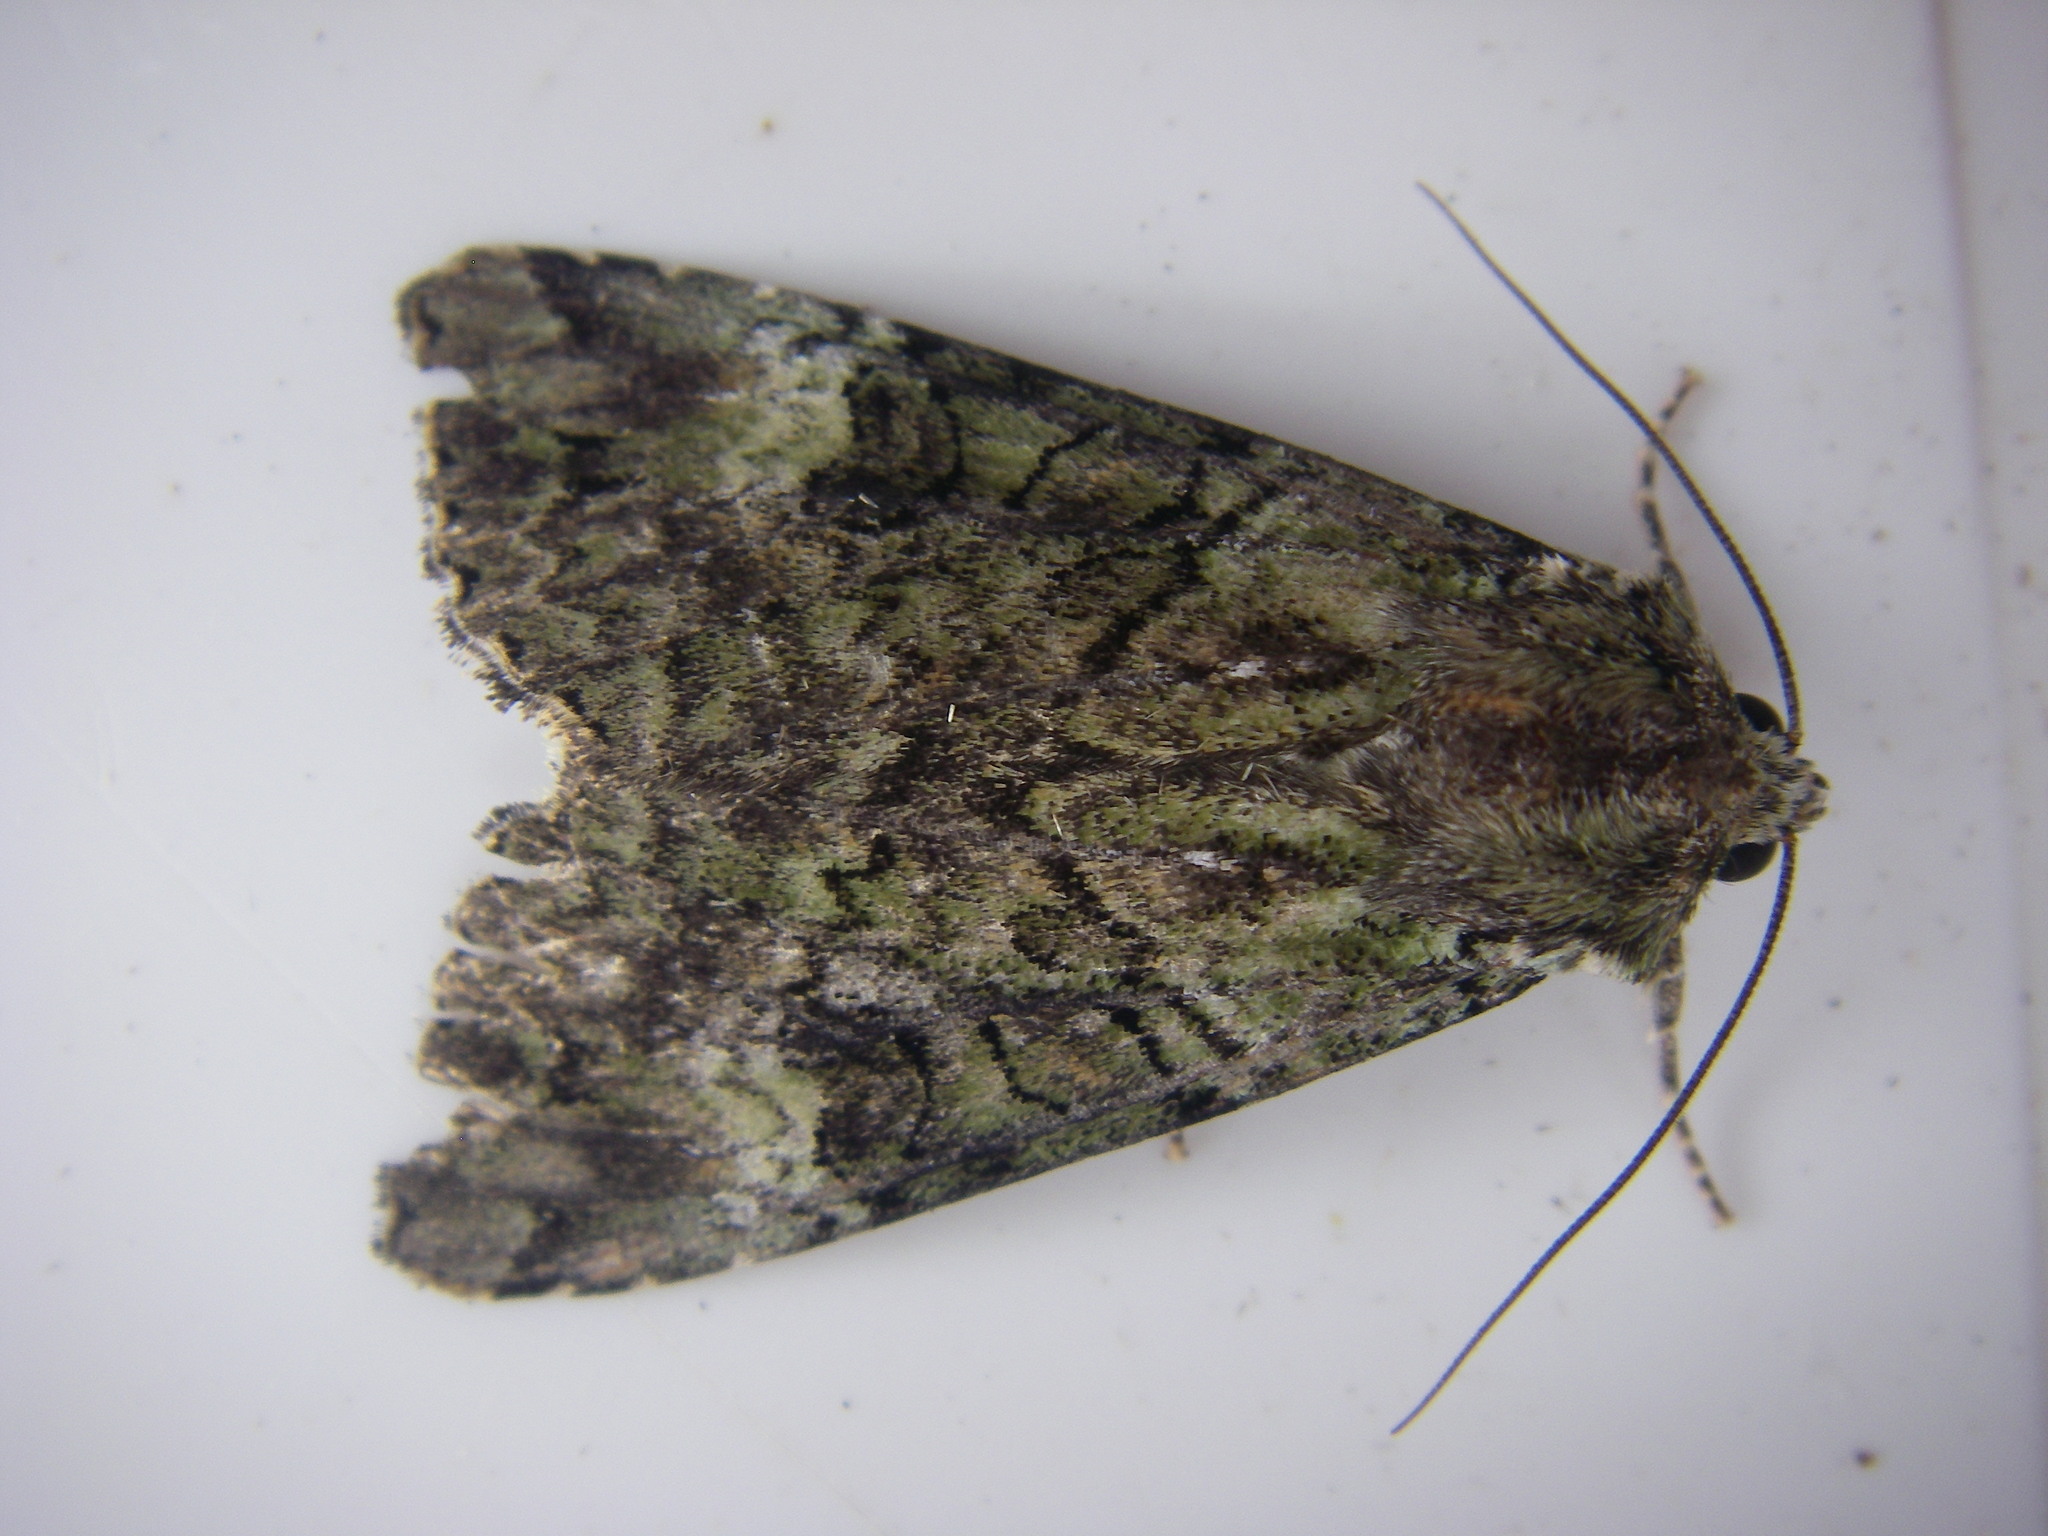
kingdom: Animalia
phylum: Arthropoda
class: Insecta
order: Lepidoptera
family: Noctuidae
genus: Anaplectoides
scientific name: Anaplectoides prasina
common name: Green arches
